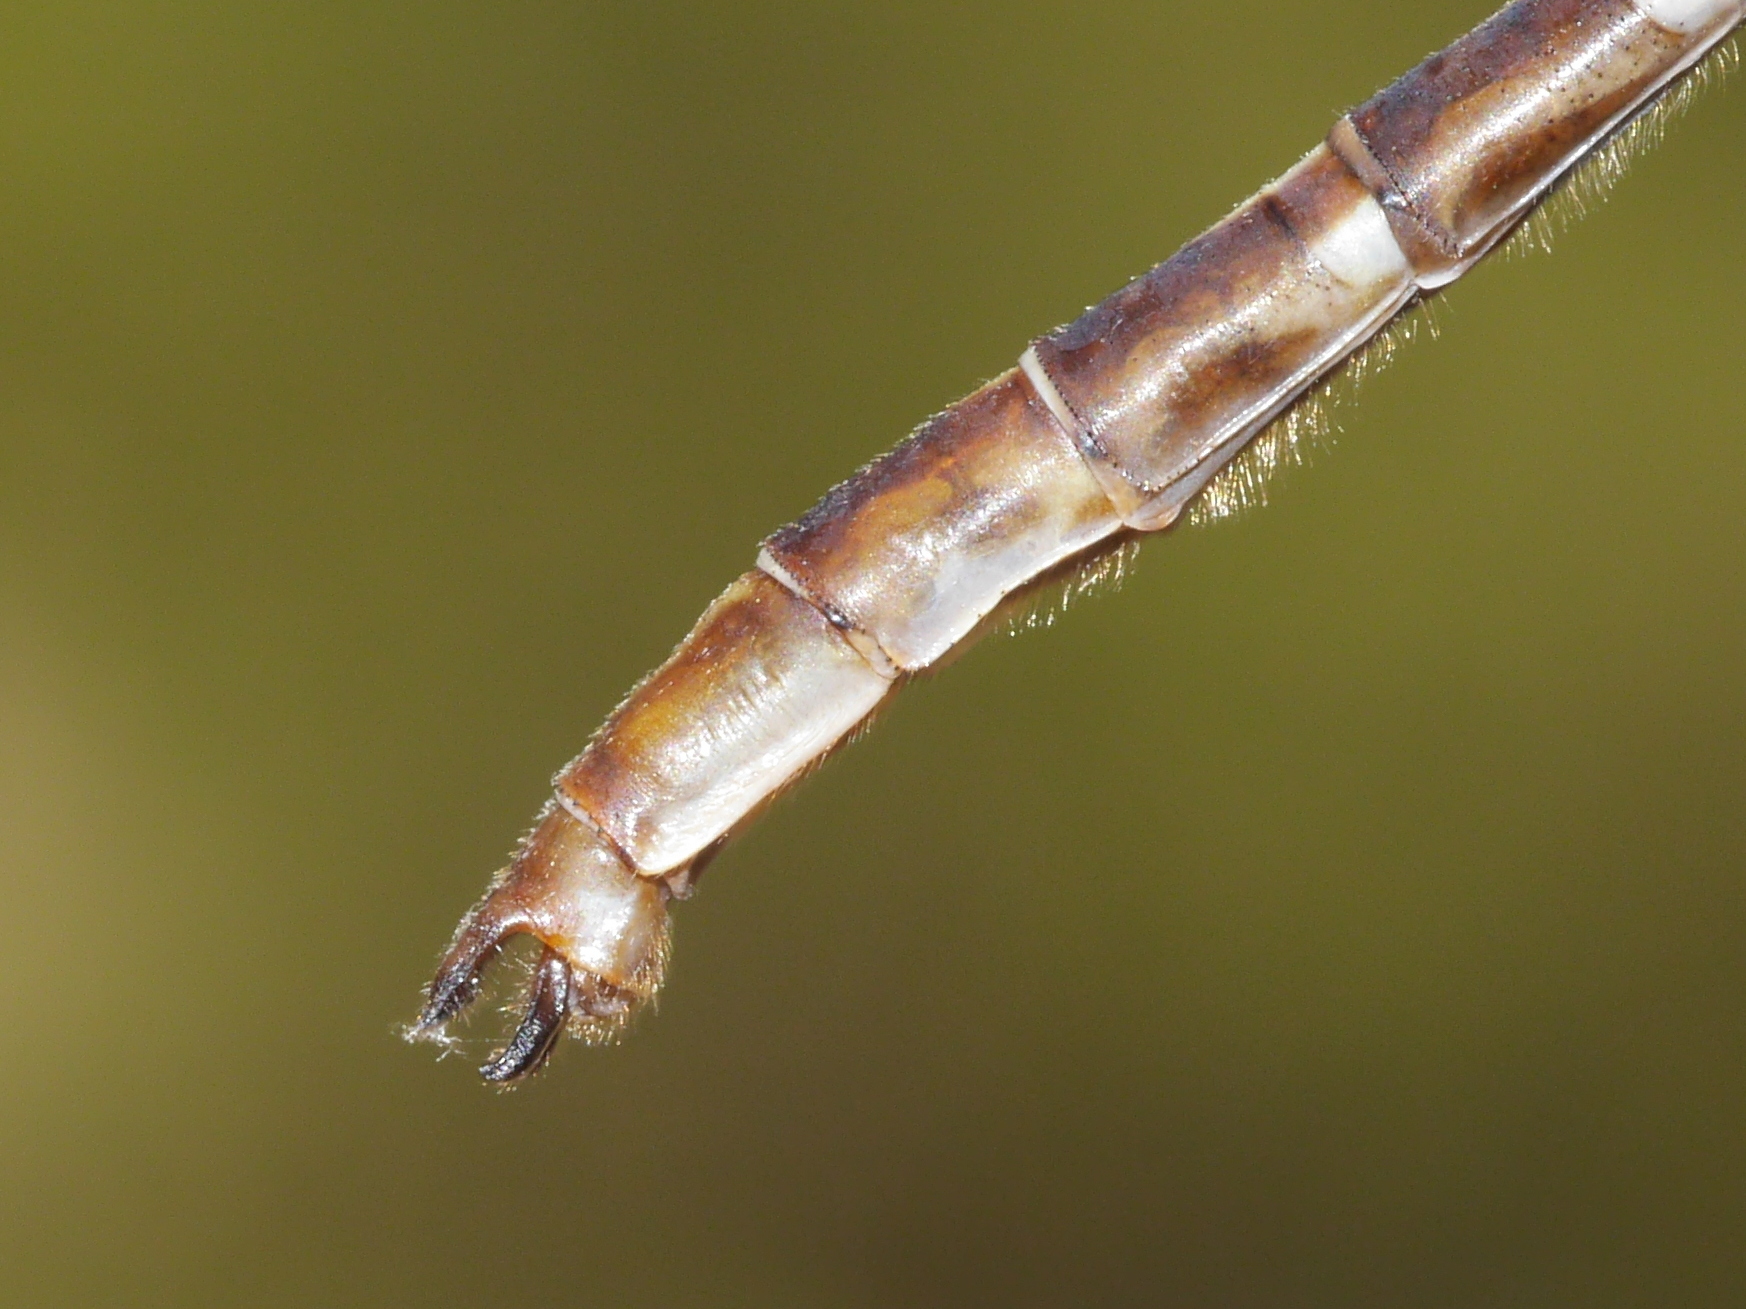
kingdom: Animalia
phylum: Arthropoda
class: Insecta
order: Odonata
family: Gomphidae
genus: Phanogomphus
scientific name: Phanogomphus lividus
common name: Ashy clubtail
